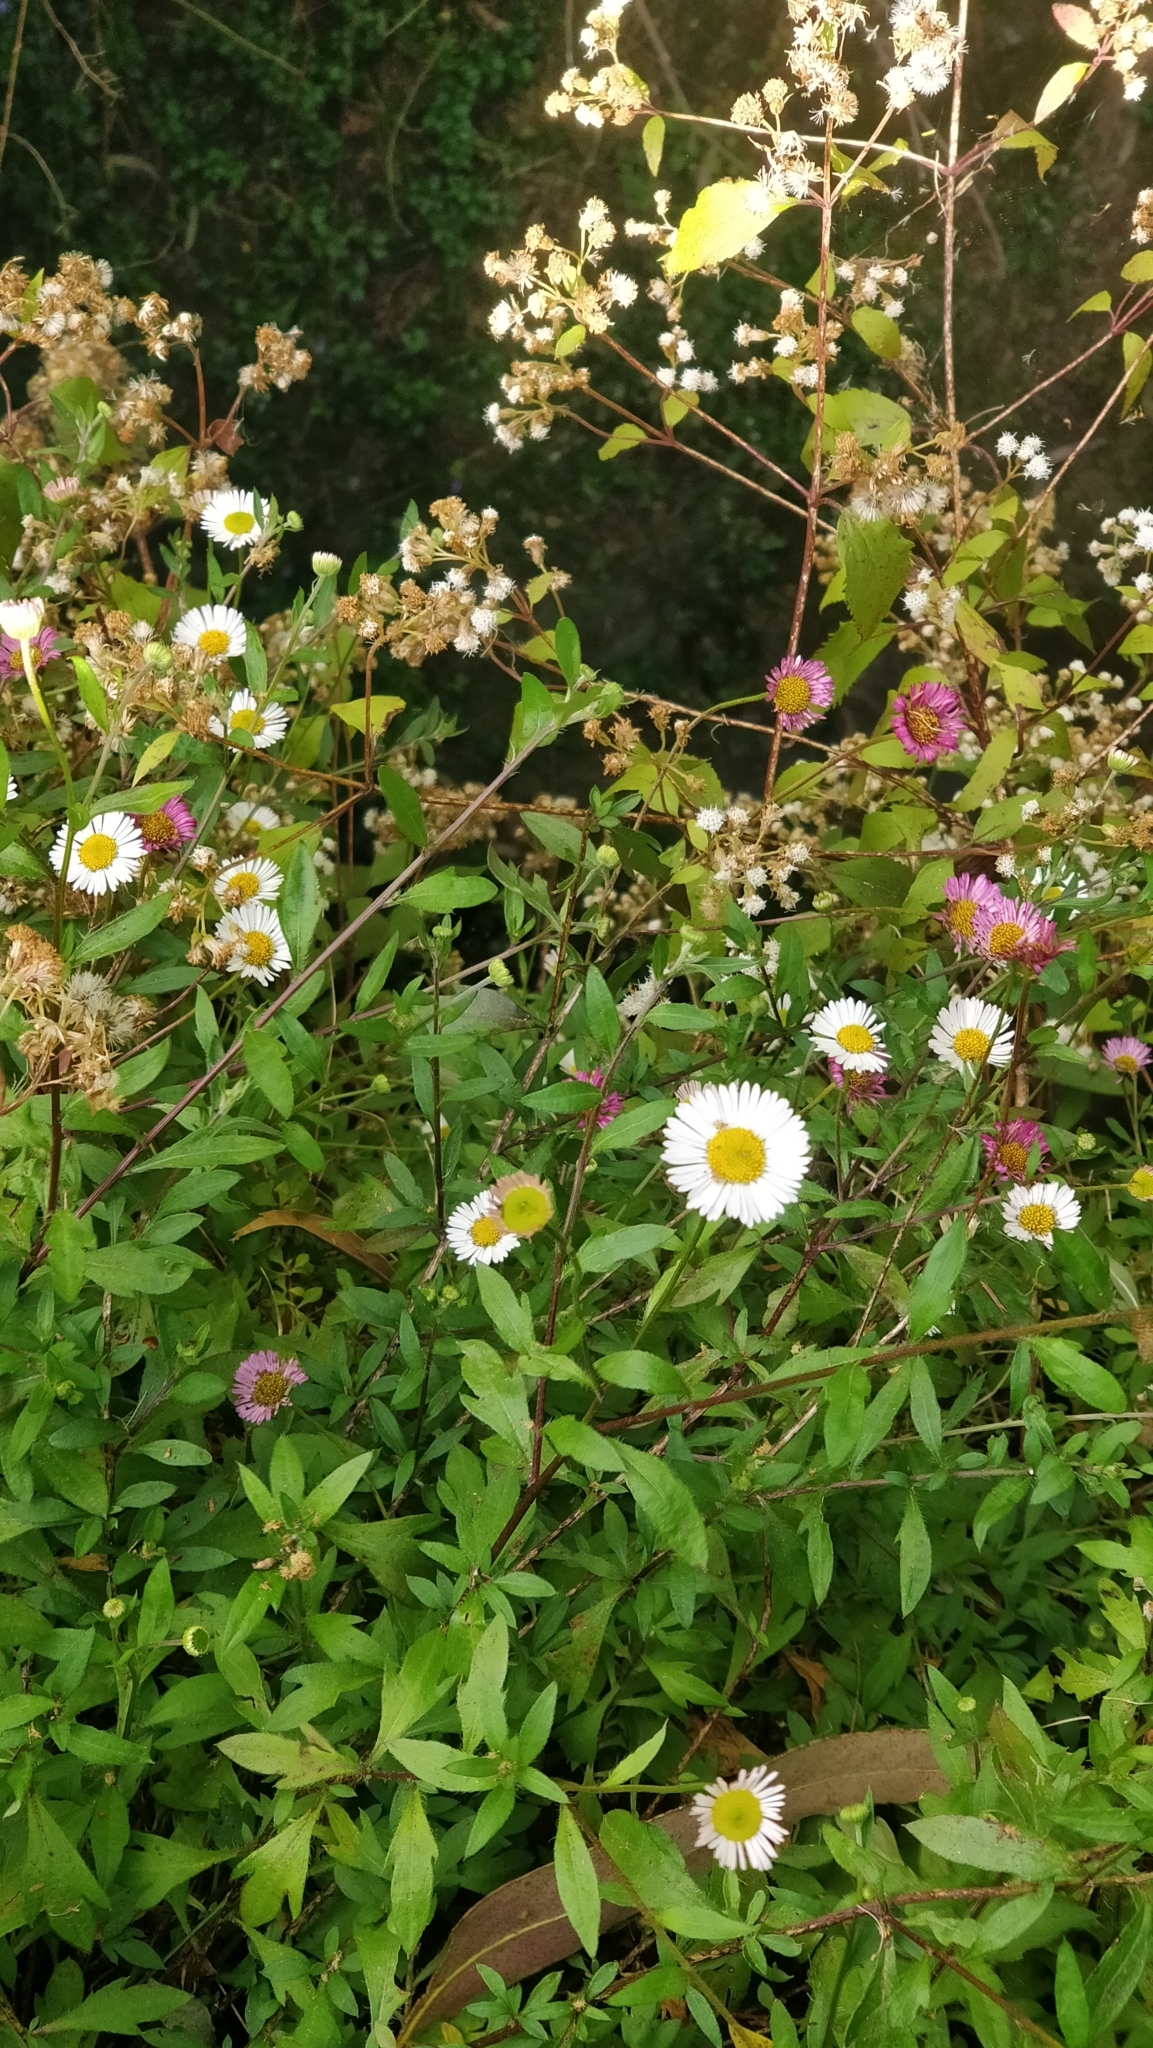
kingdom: Plantae
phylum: Tracheophyta
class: Magnoliopsida
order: Asterales
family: Asteraceae
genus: Erigeron
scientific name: Erigeron karvinskianus
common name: Mexican fleabane
